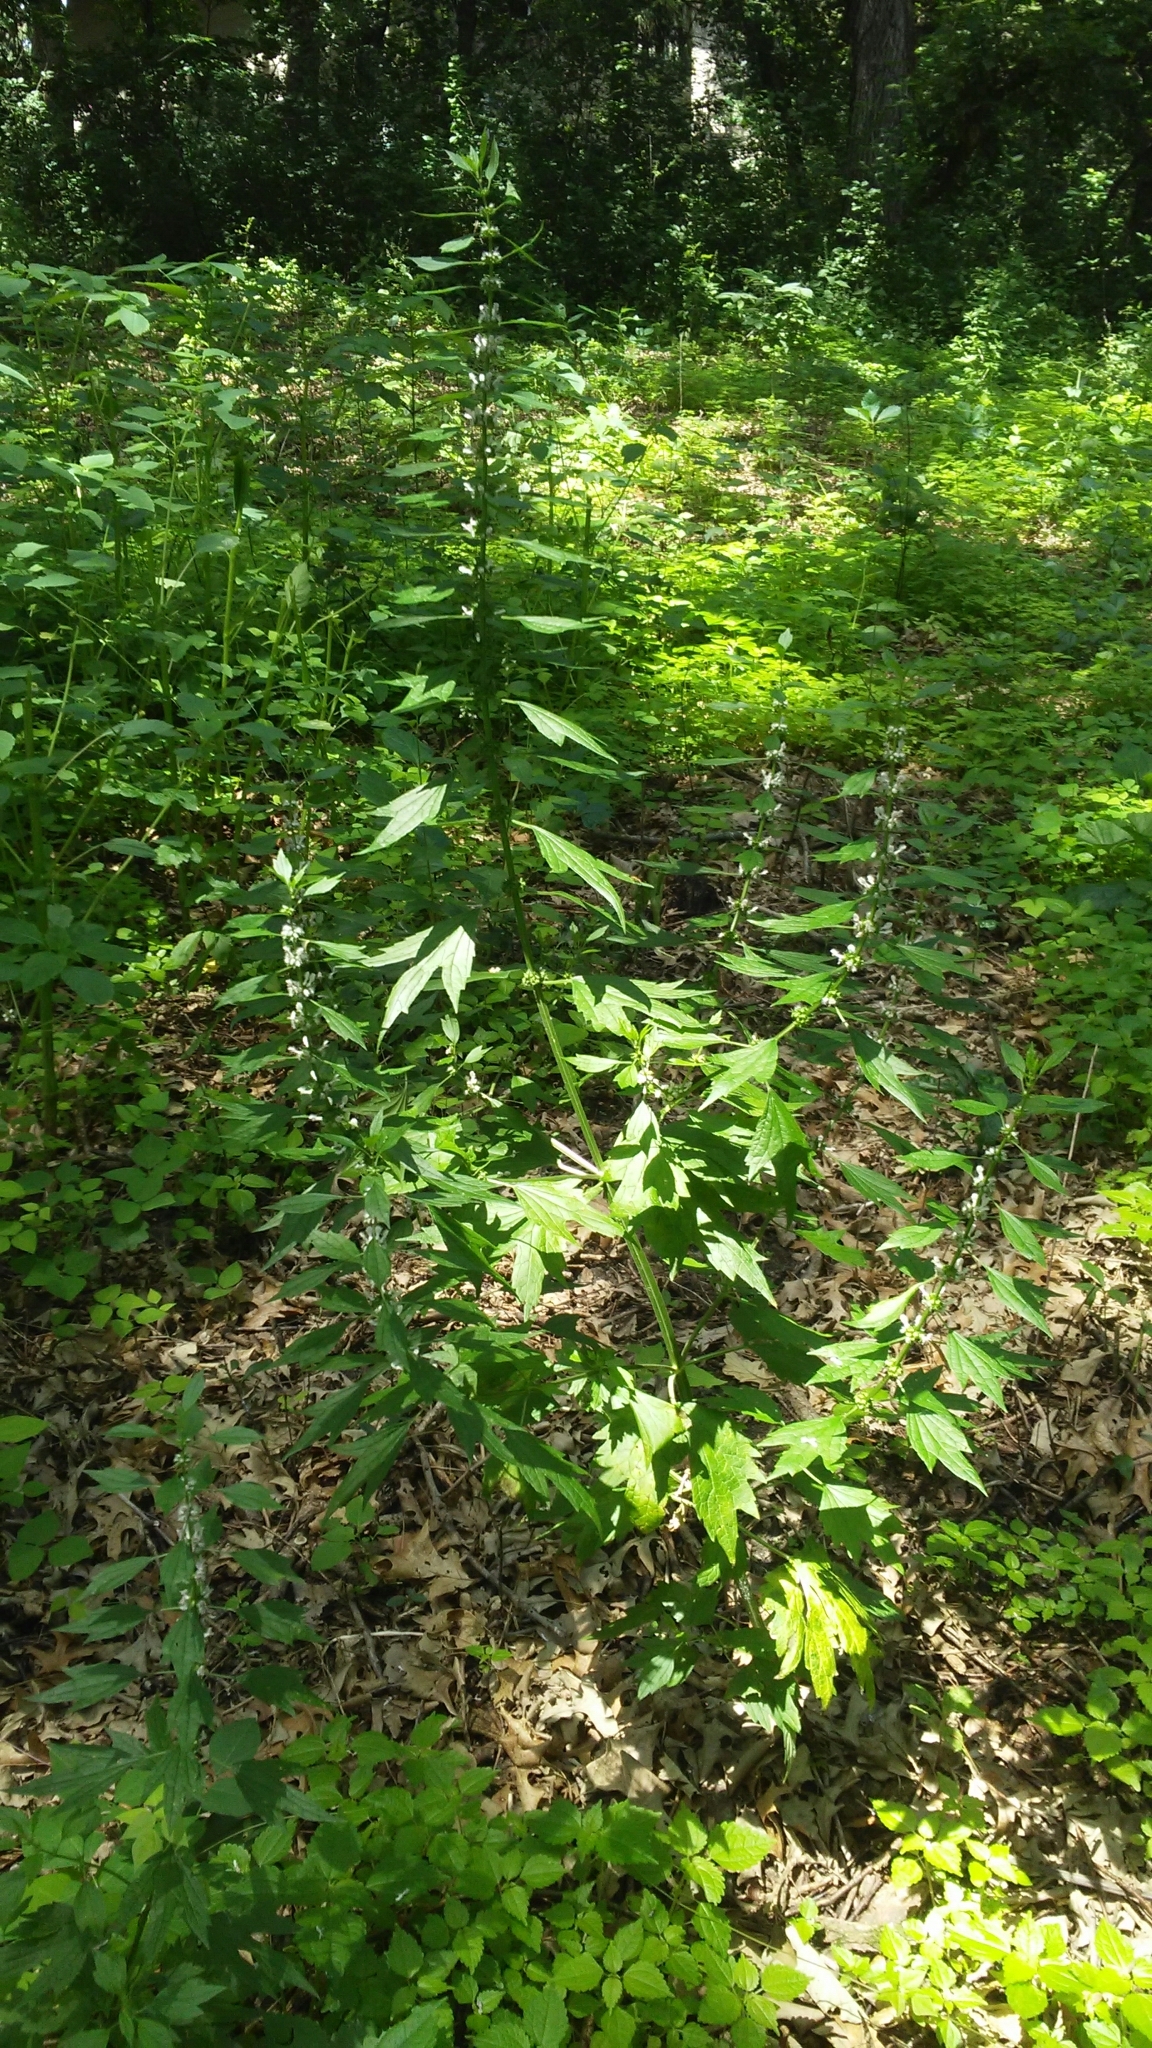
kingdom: Plantae
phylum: Tracheophyta
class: Magnoliopsida
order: Lamiales
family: Lamiaceae
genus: Leonurus
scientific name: Leonurus cardiaca
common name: Motherwort
